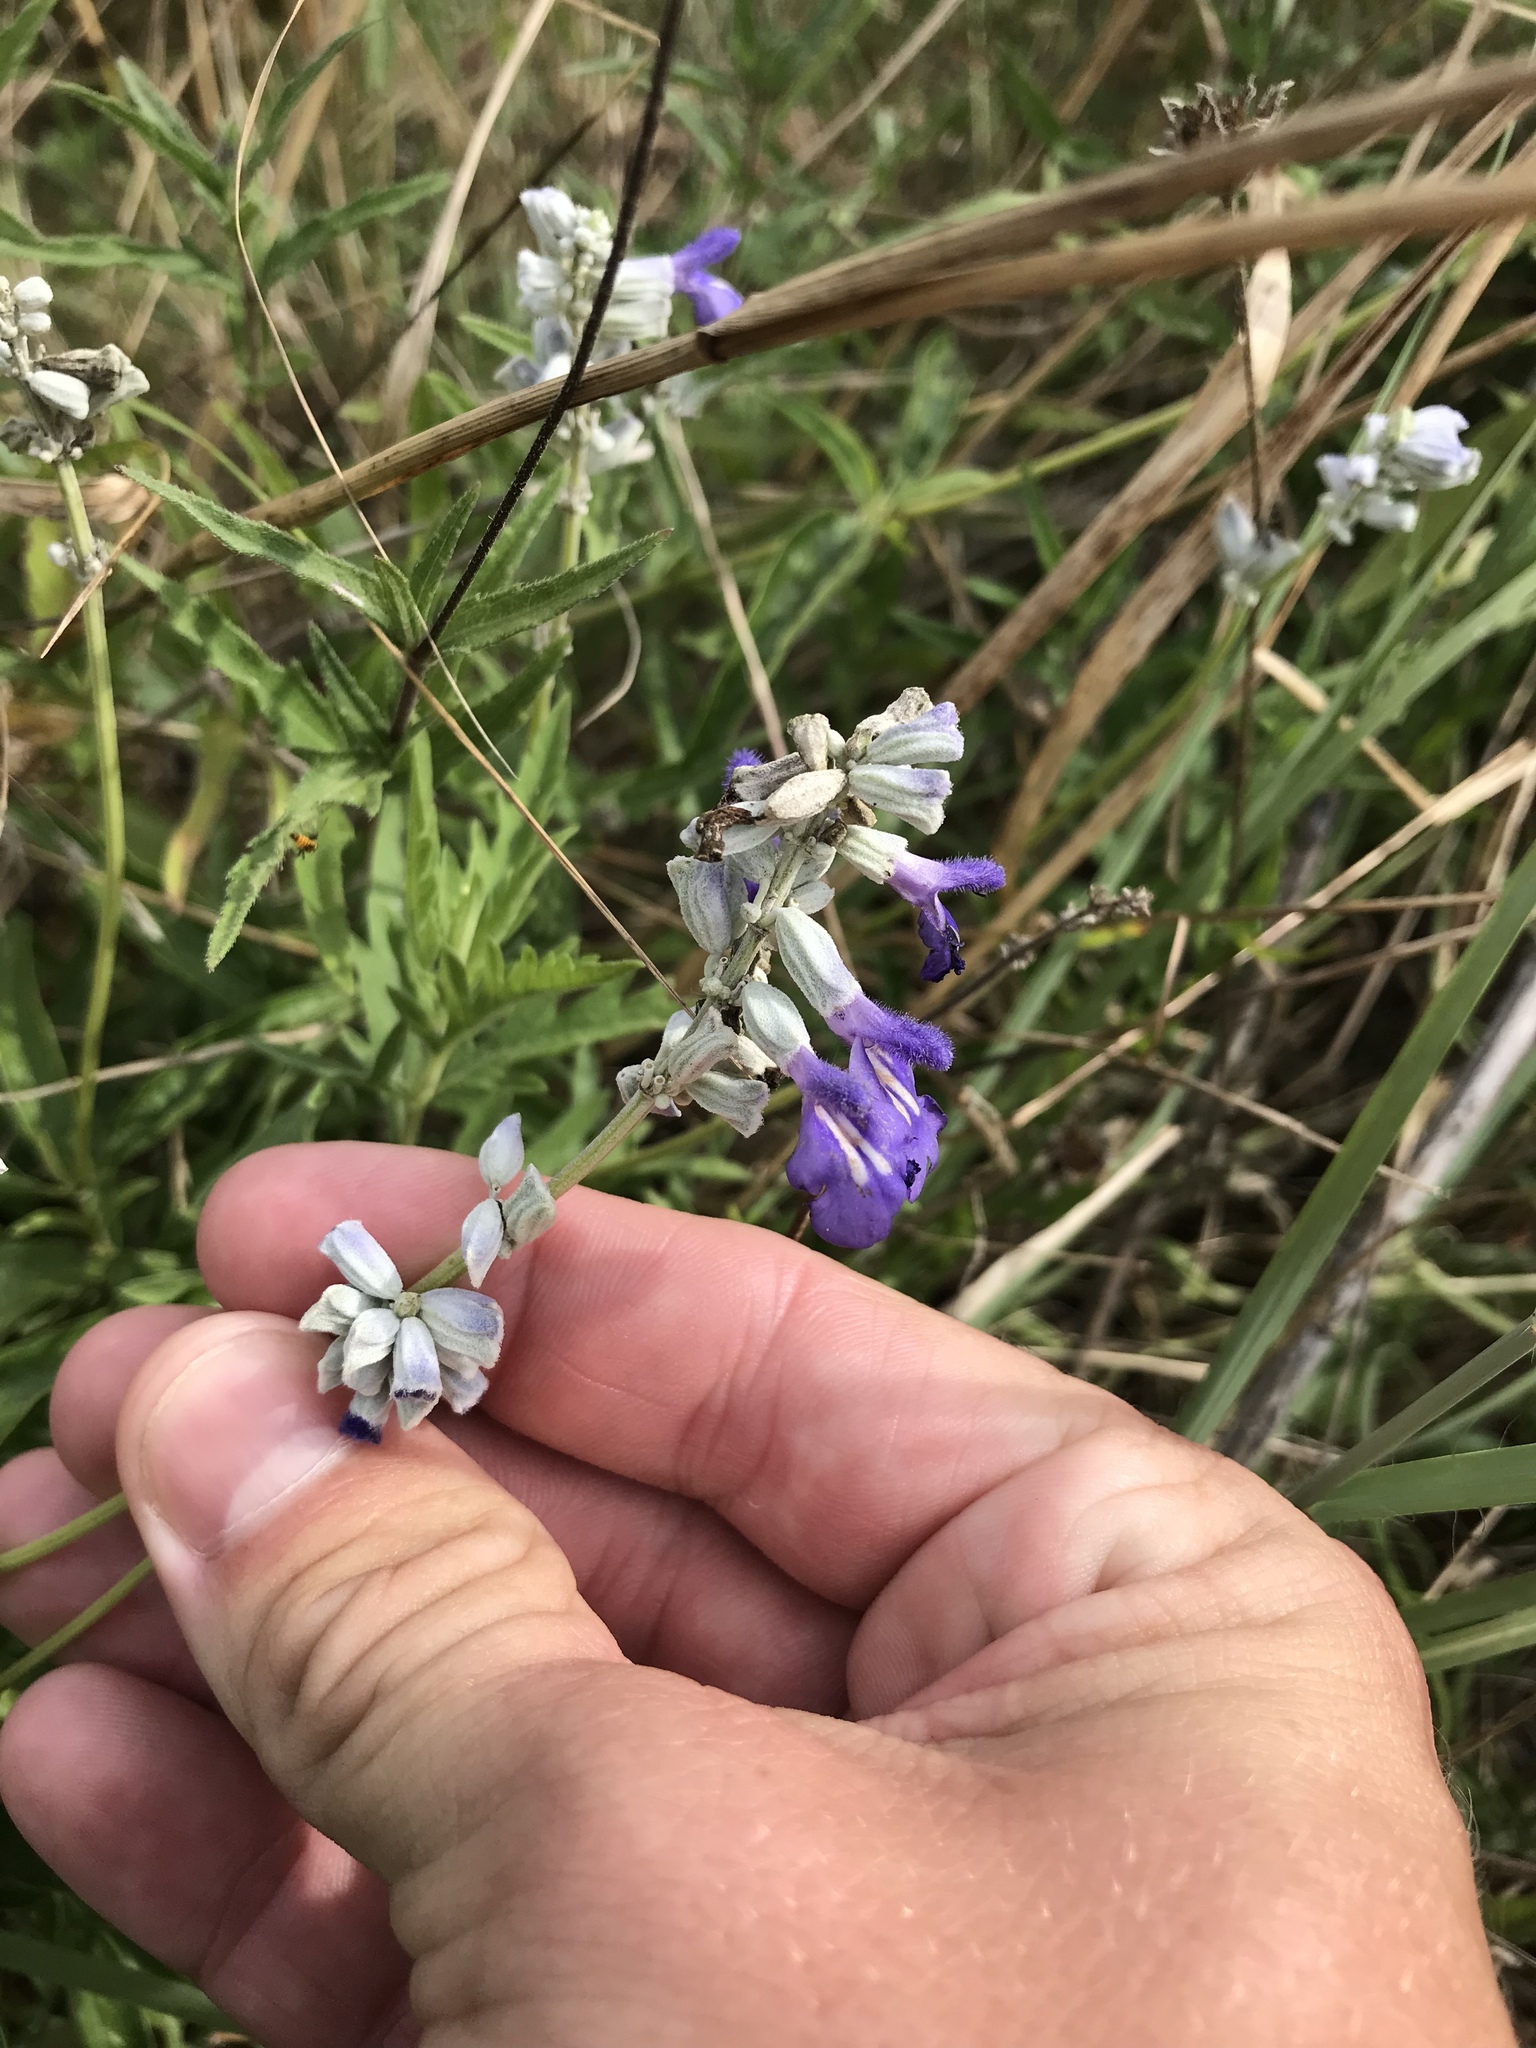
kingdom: Plantae
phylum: Tracheophyta
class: Magnoliopsida
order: Lamiales
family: Lamiaceae
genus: Salvia
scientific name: Salvia farinacea
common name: Mealy sage
